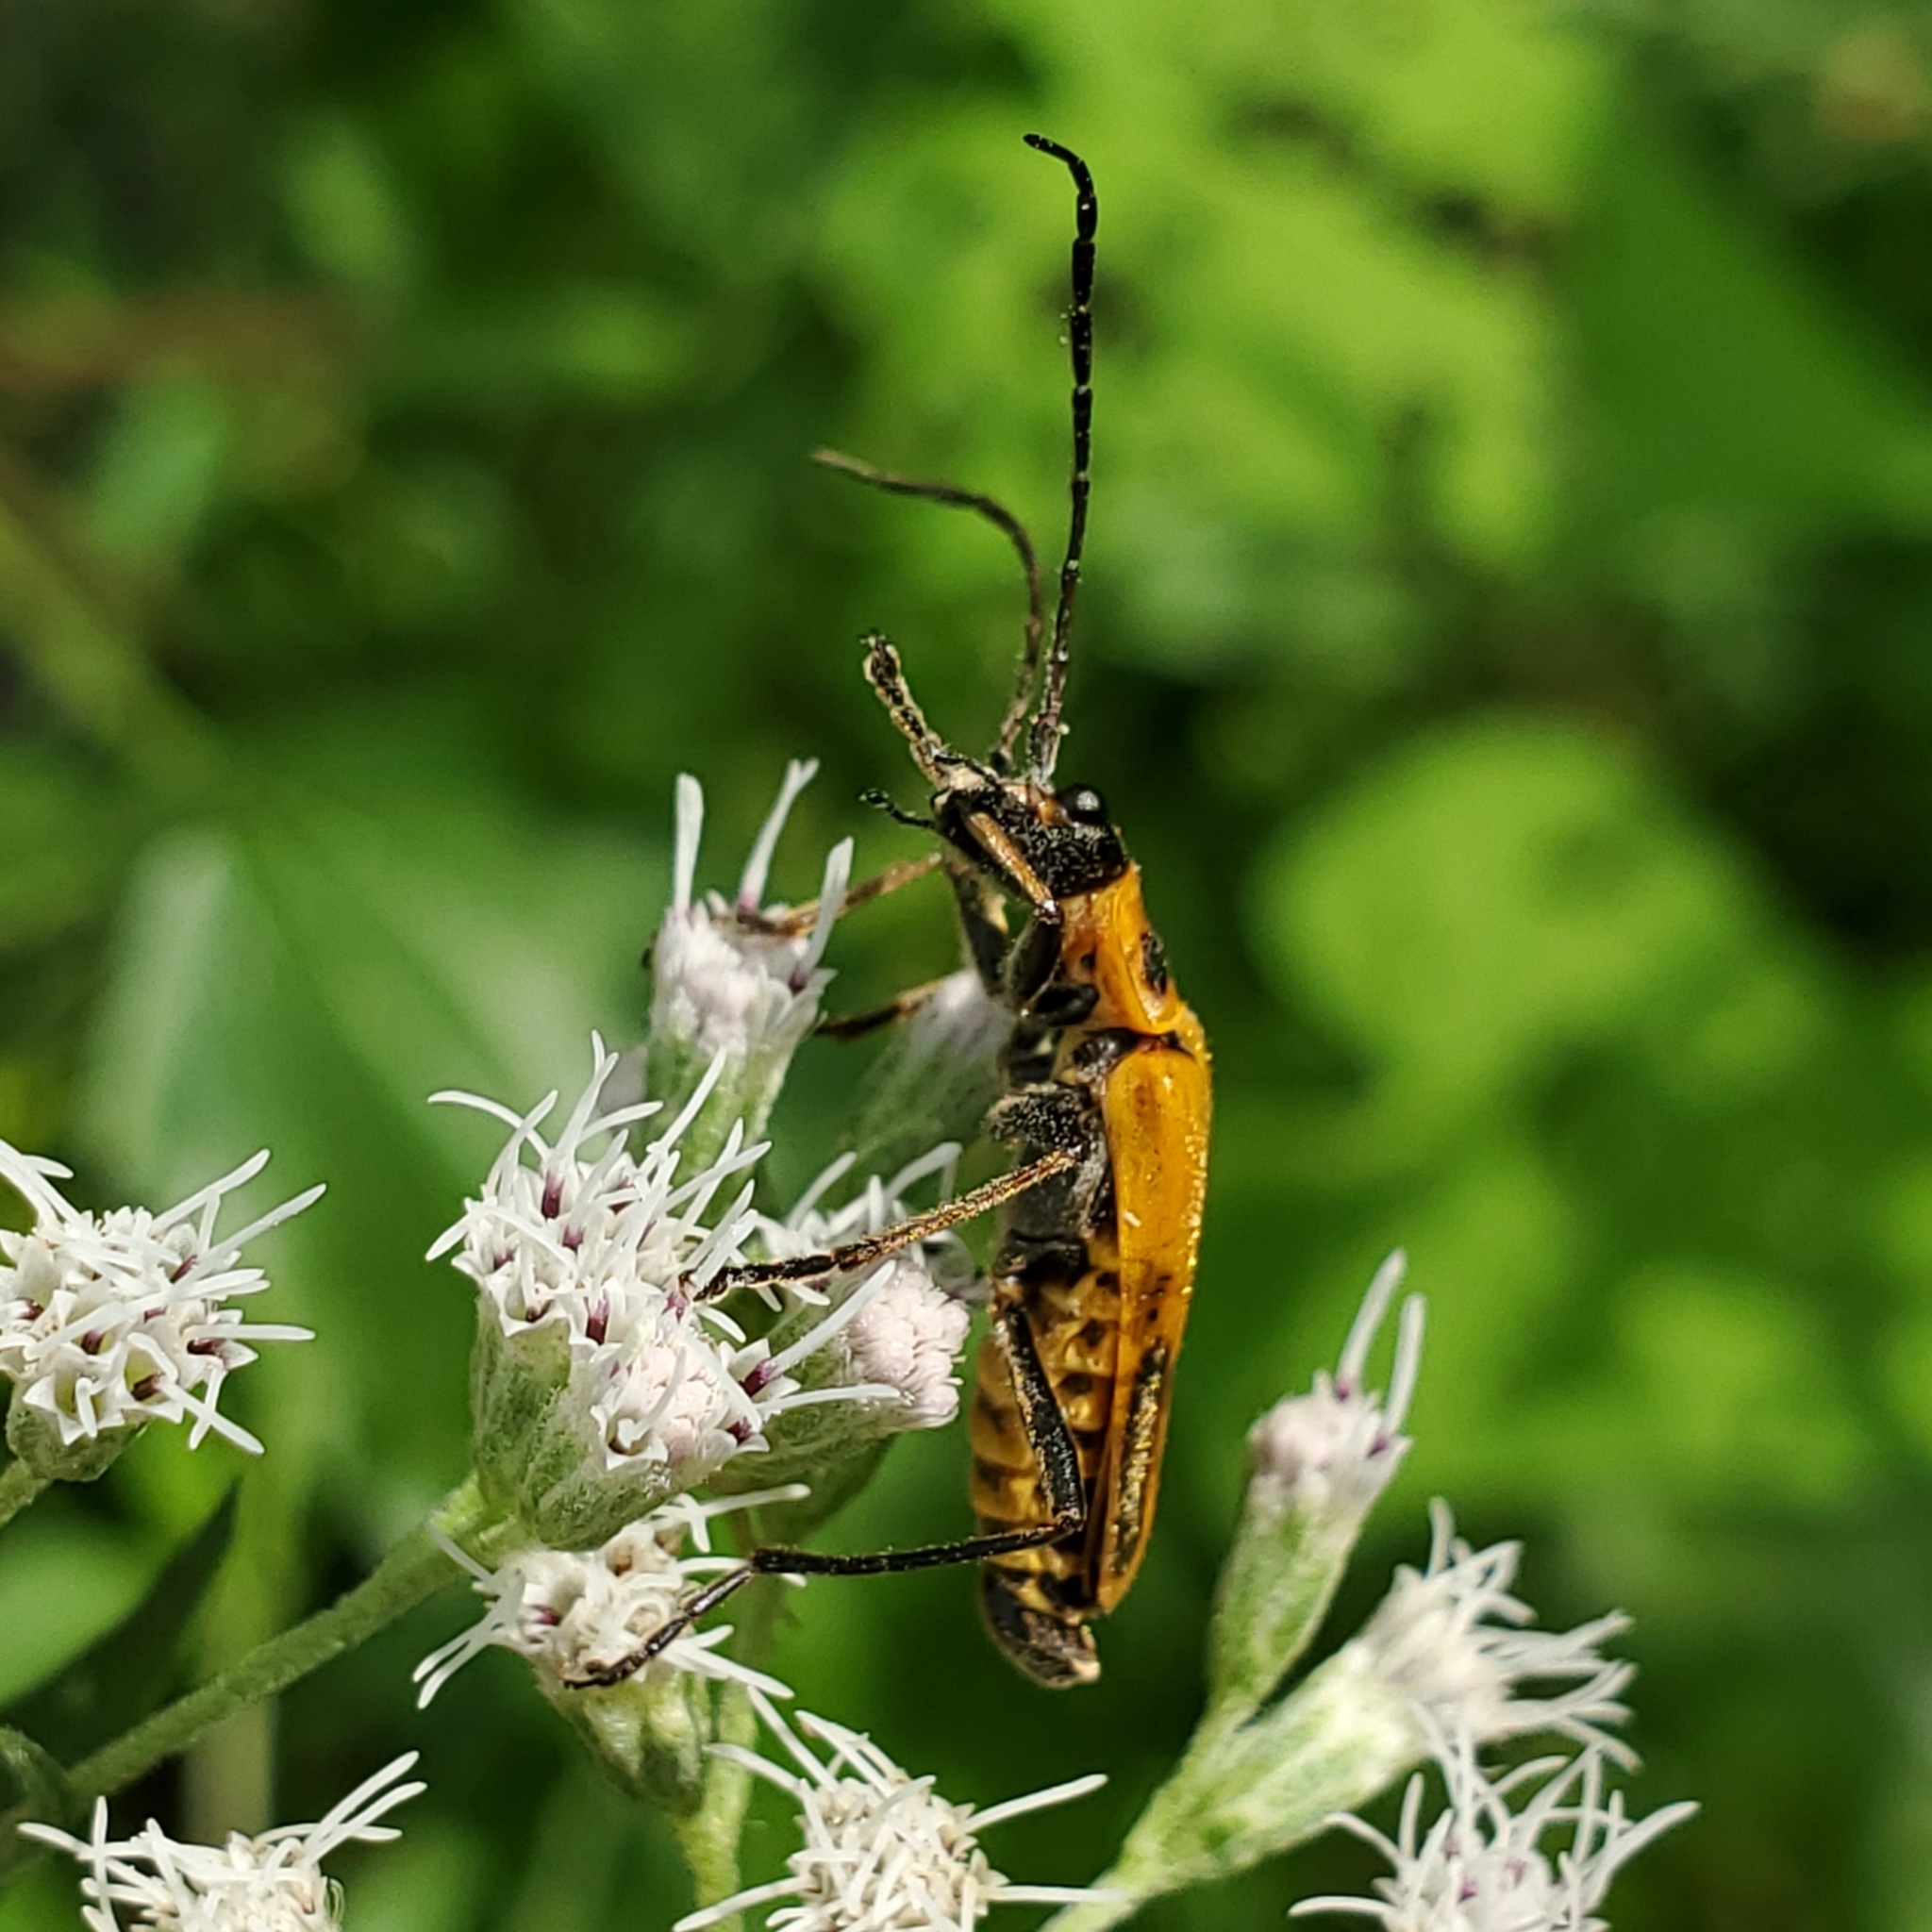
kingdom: Animalia
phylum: Arthropoda
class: Insecta
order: Coleoptera
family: Cantharidae
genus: Chauliognathus
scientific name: Chauliognathus pensylvanicus
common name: Goldenrod soldier beetle
